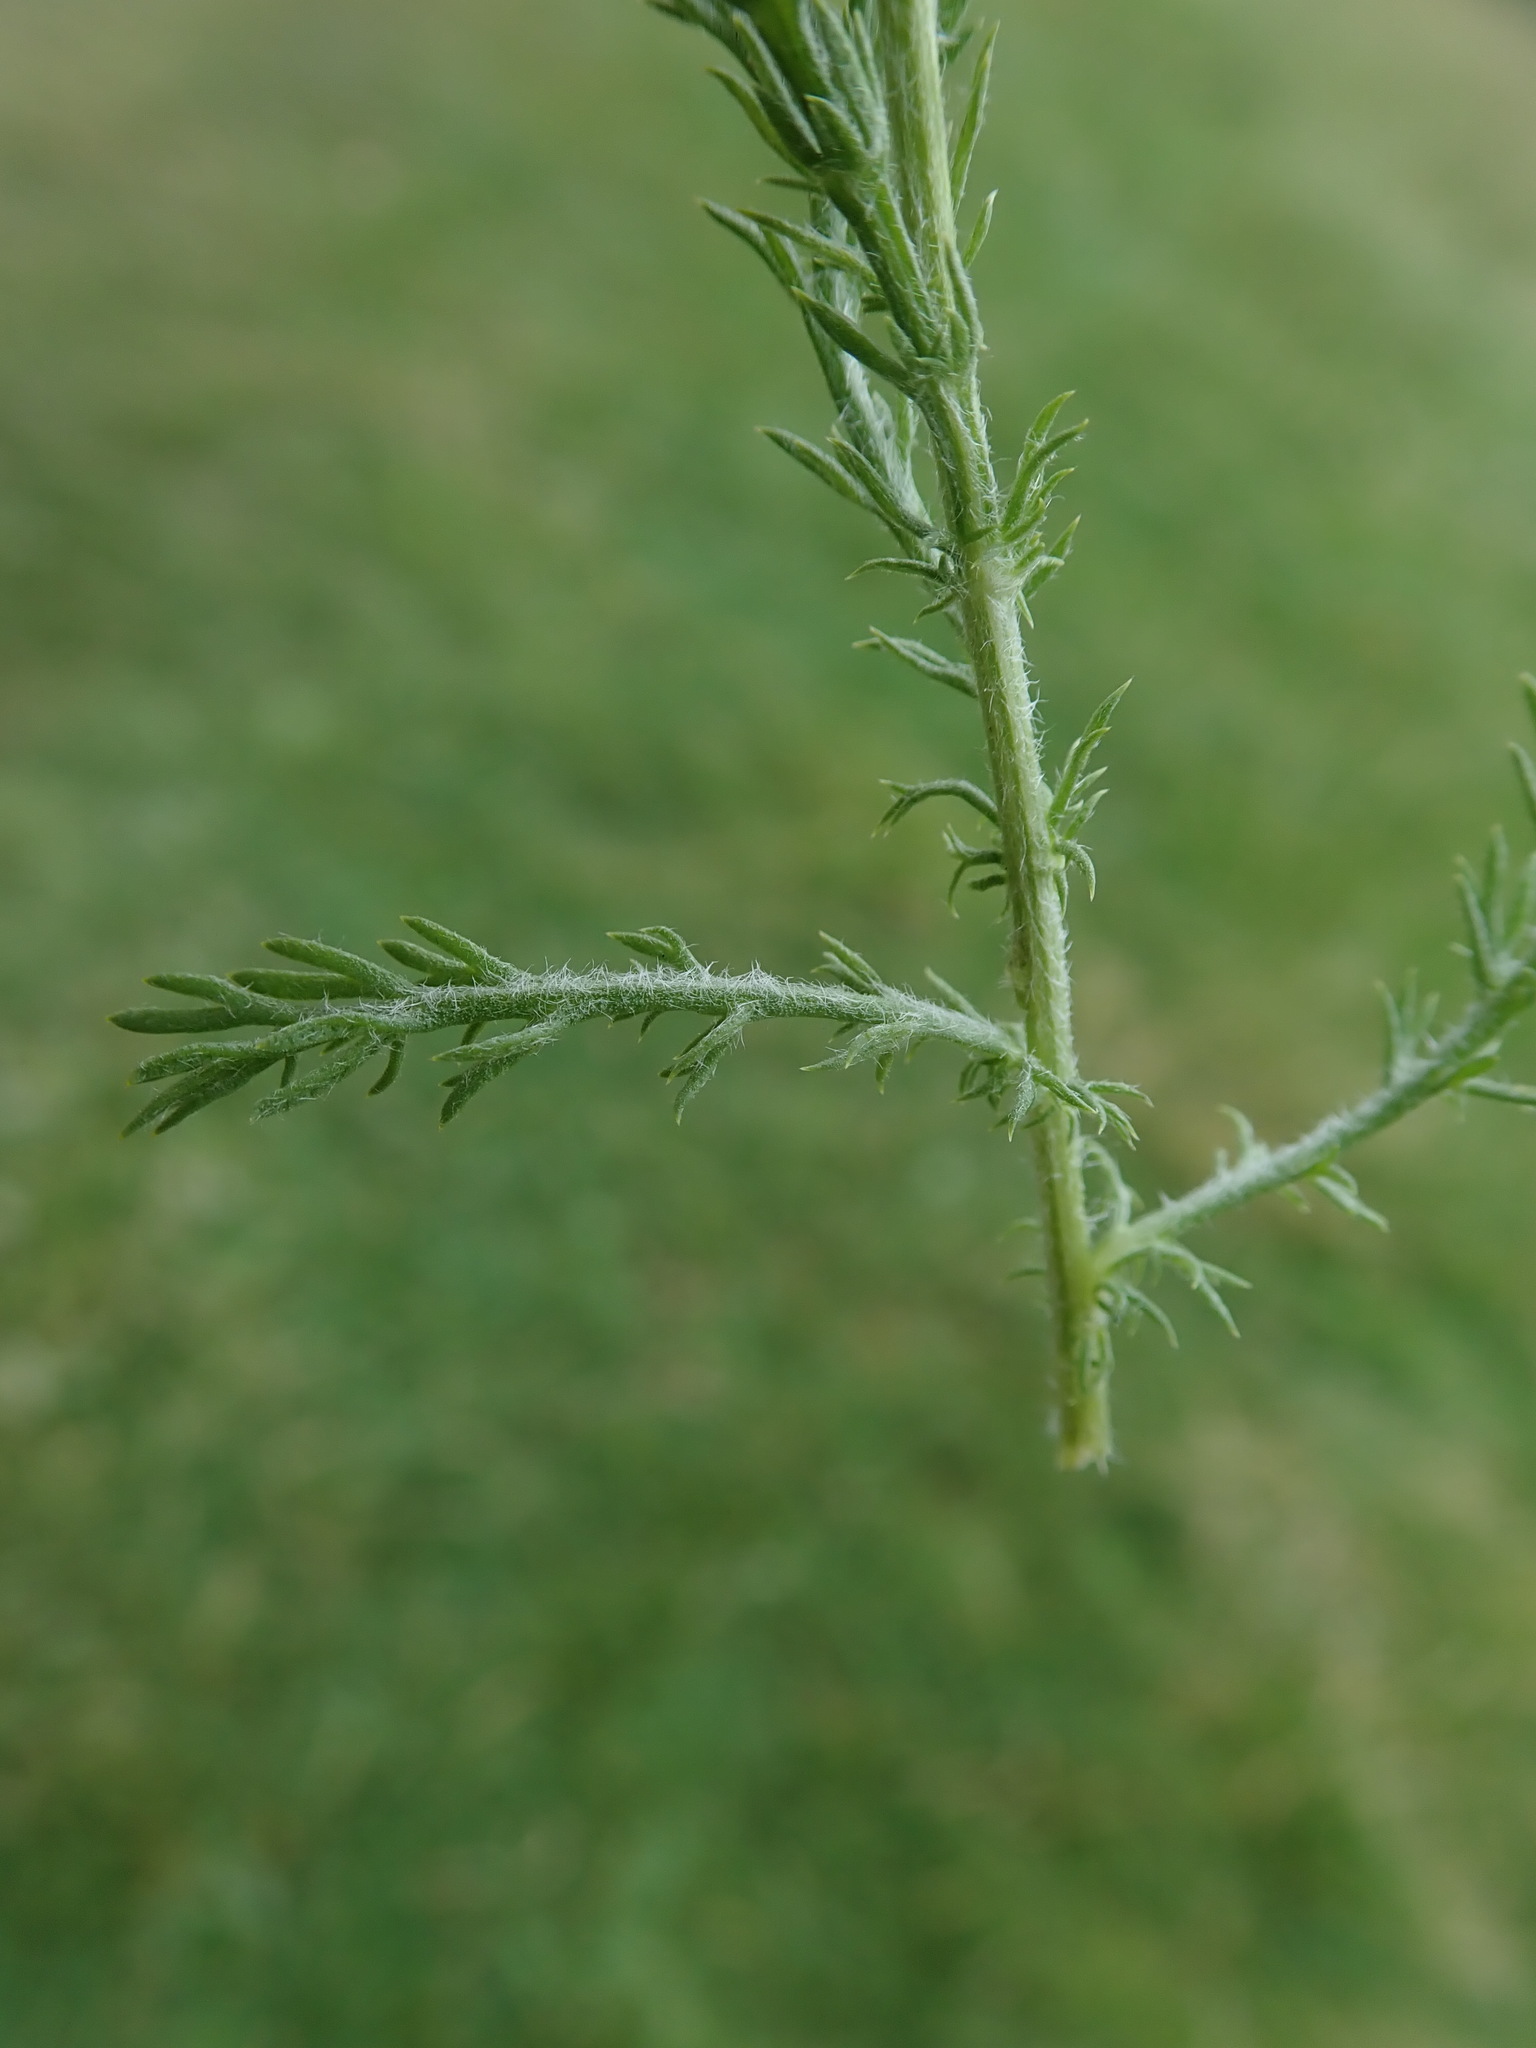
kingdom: Plantae
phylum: Tracheophyta
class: Magnoliopsida
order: Asterales
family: Asteraceae
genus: Anthemis
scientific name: Anthemis arvensis
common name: Corn chamomile
